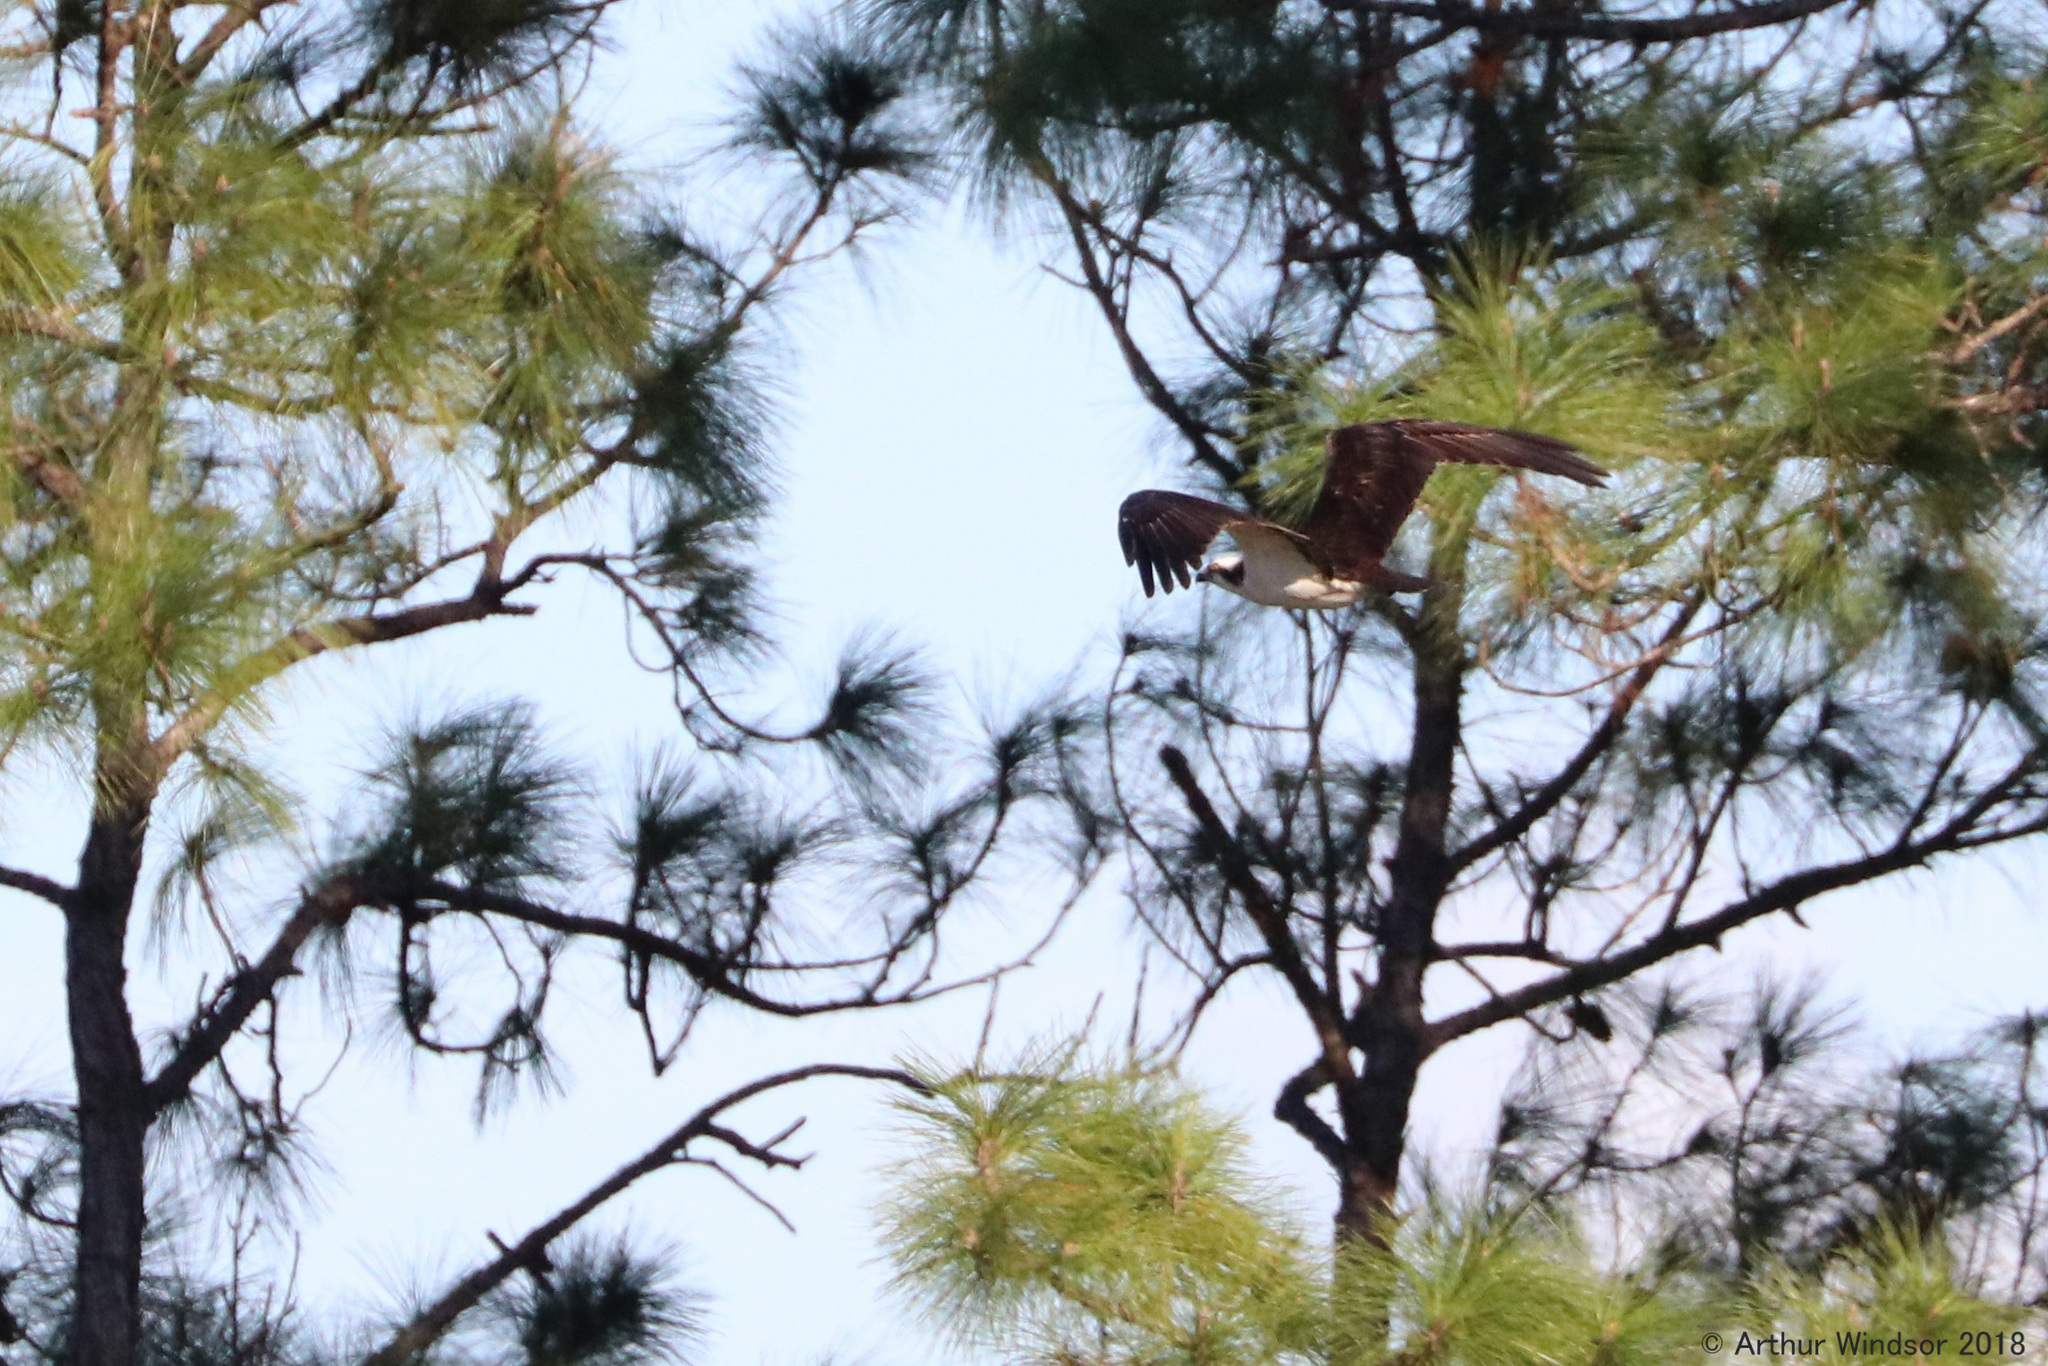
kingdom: Animalia
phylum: Chordata
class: Aves
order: Accipitriformes
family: Pandionidae
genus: Pandion
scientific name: Pandion haliaetus
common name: Osprey
